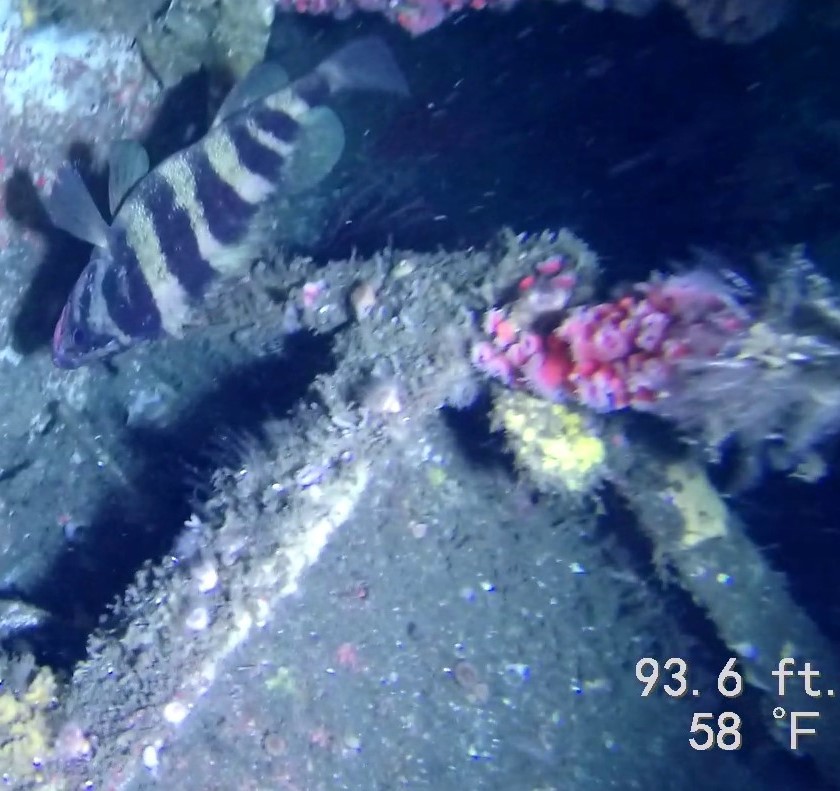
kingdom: Animalia
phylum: Chordata
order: Scorpaeniformes
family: Sebastidae
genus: Sebastes
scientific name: Sebastes serriceps
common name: Treefish
